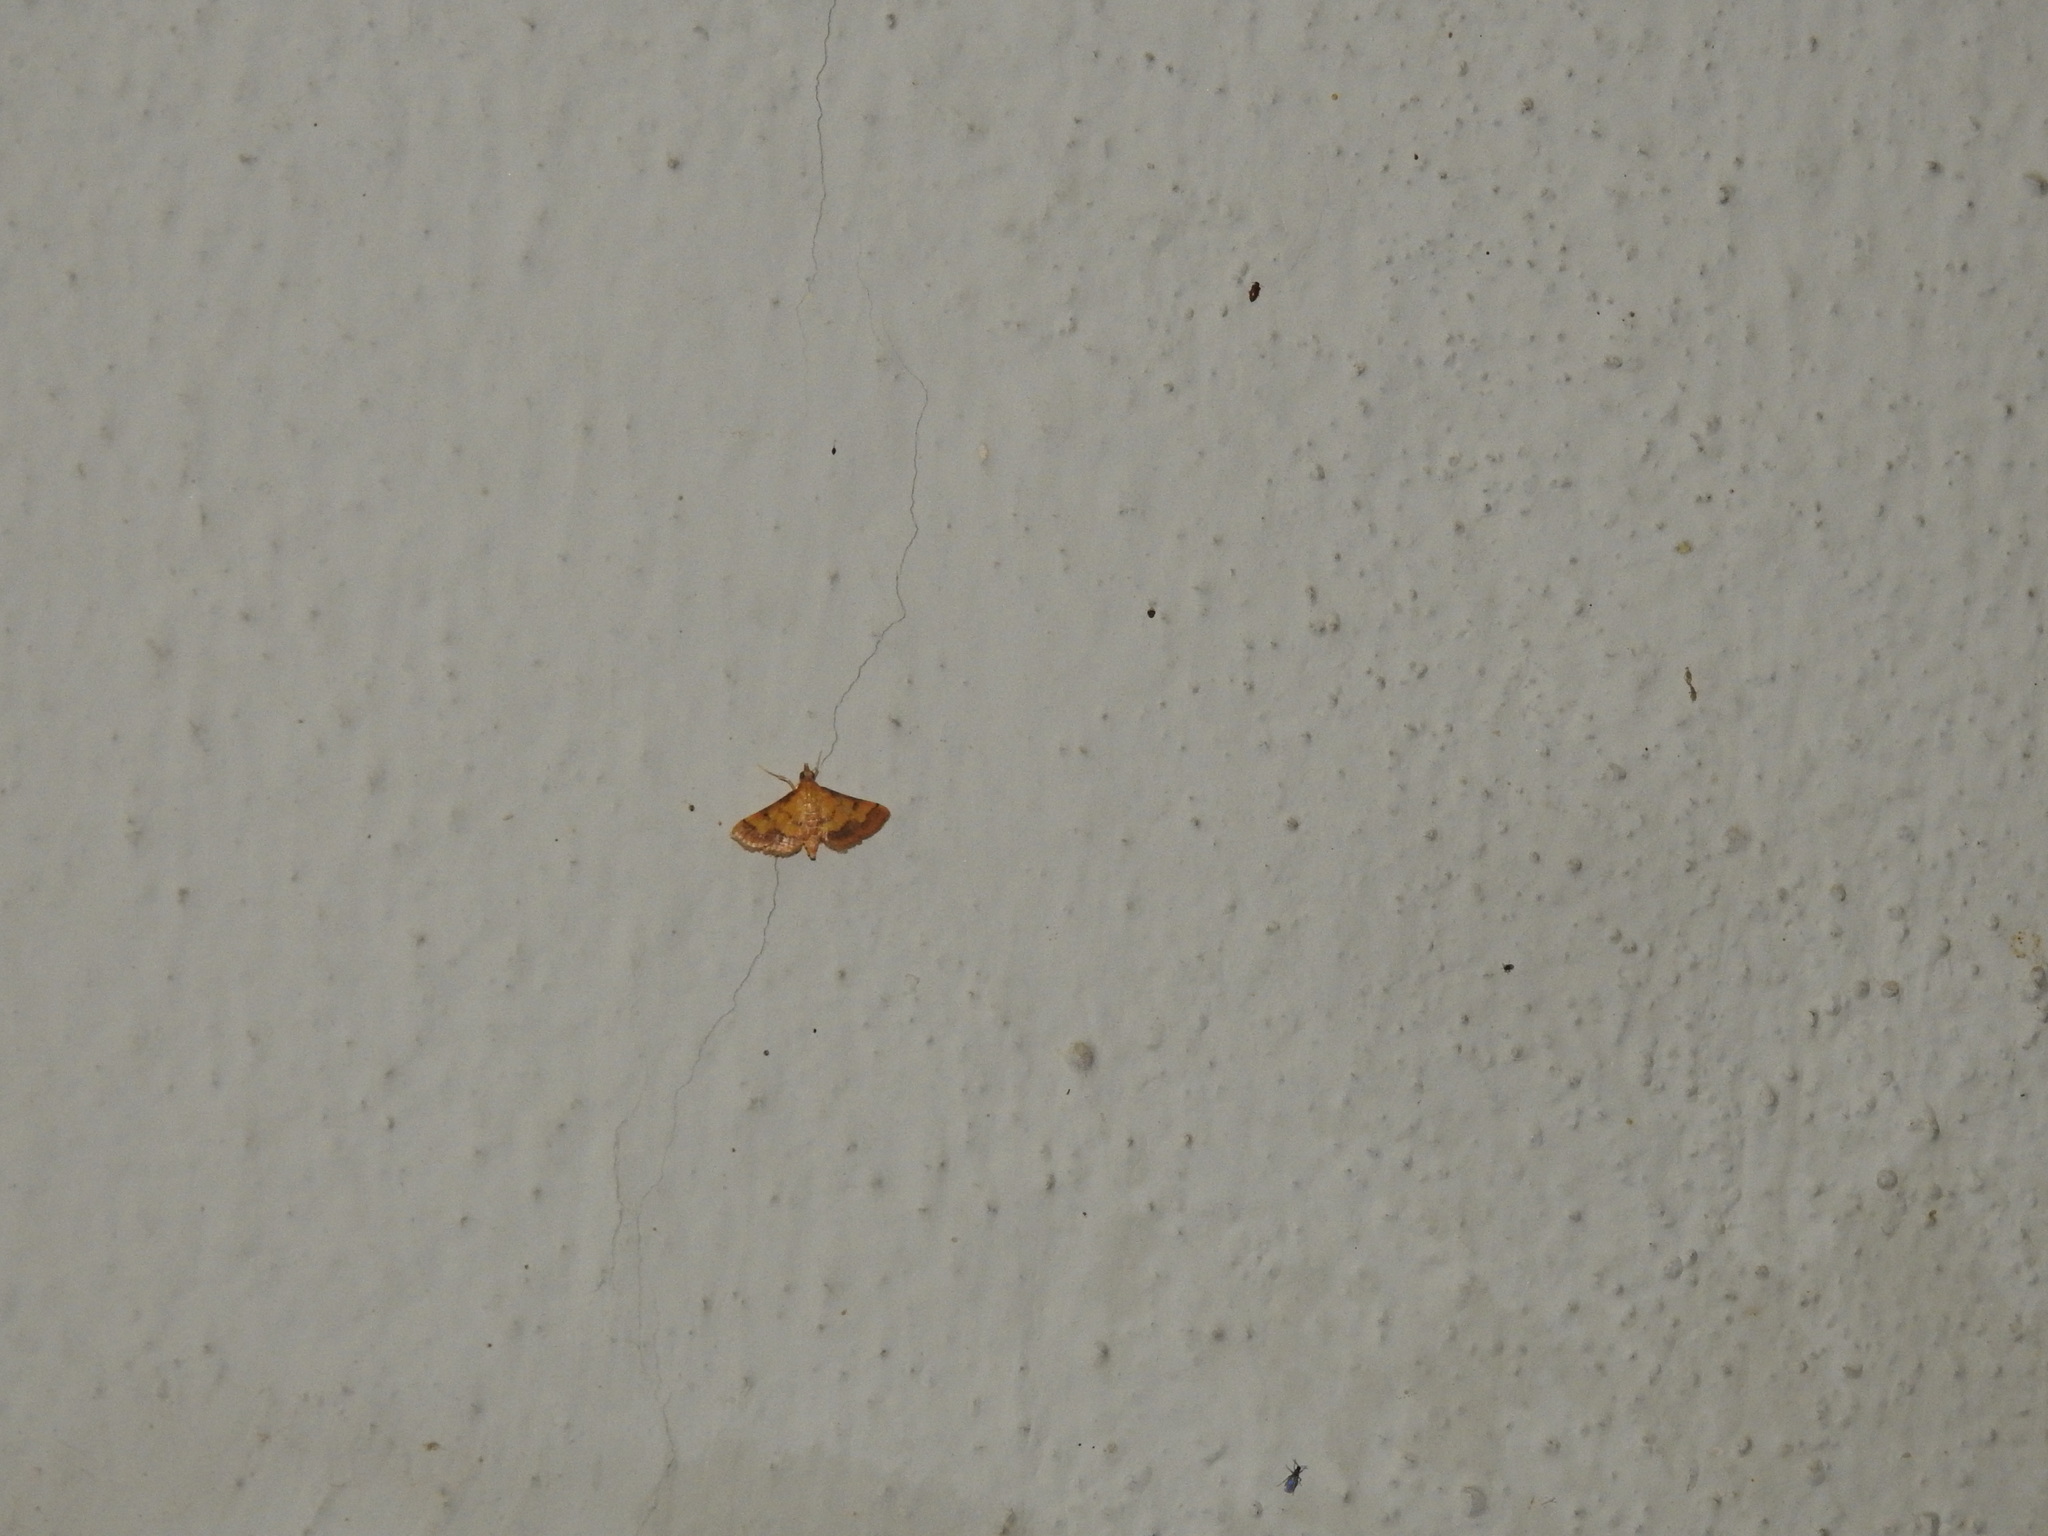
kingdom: Animalia
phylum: Arthropoda
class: Insecta
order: Lepidoptera
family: Crambidae
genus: Ischnurges
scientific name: Ischnurges luteomarginalis
